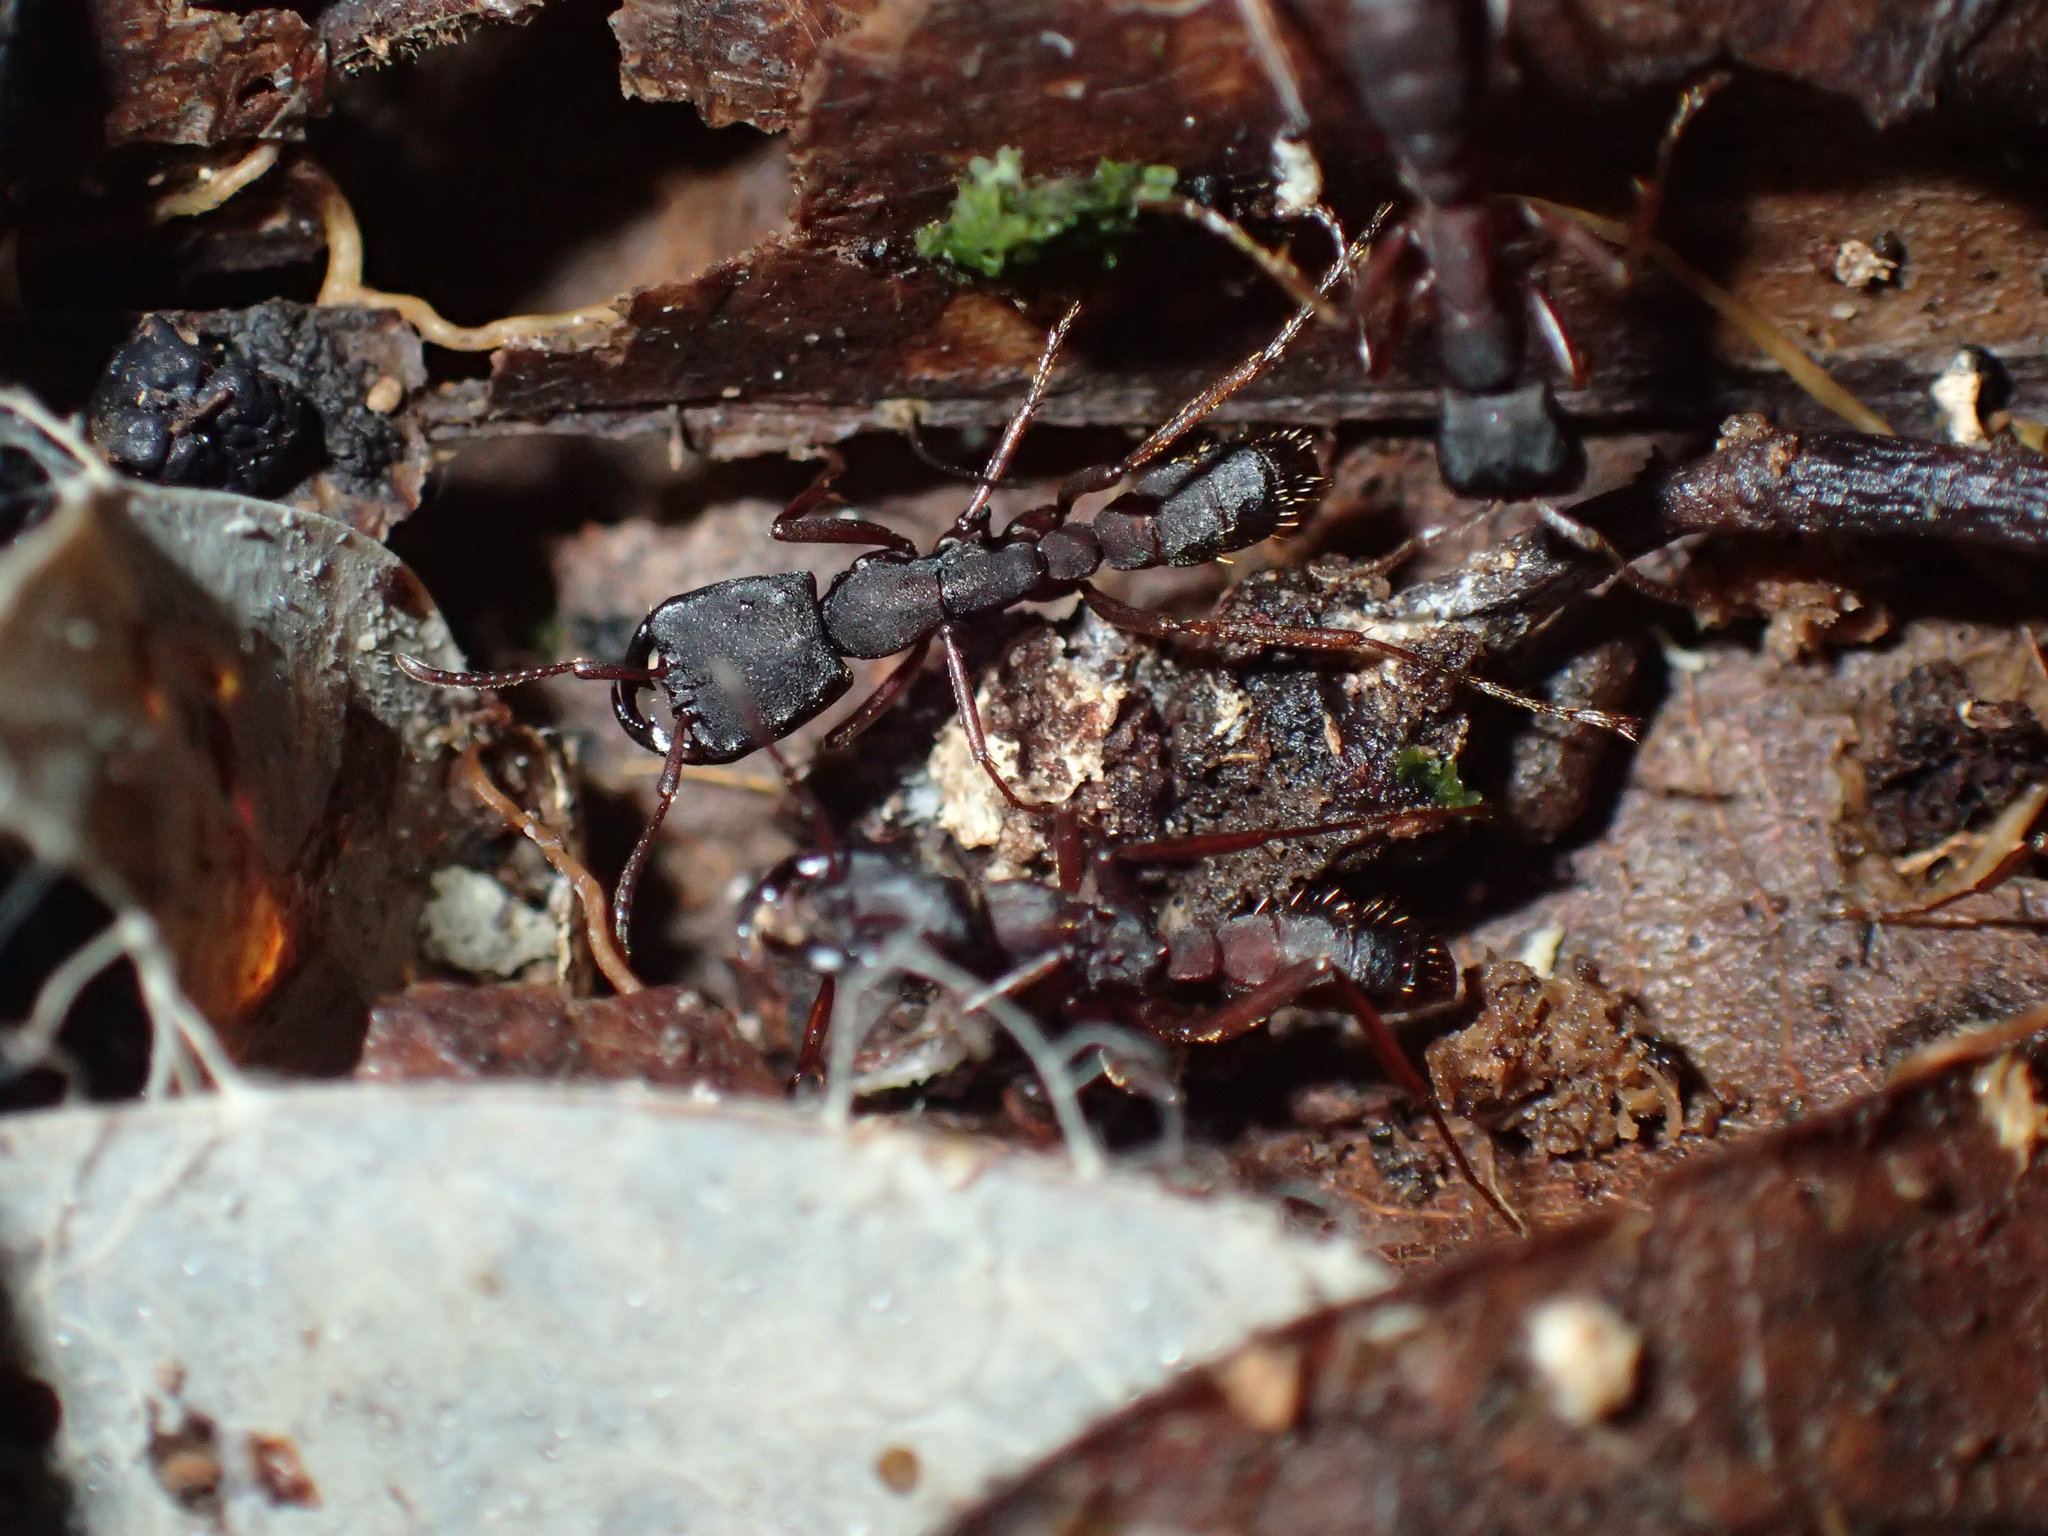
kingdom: Animalia
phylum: Arthropoda
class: Insecta
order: Hymenoptera
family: Formicidae
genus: Dorylus
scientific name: Dorylus titan
